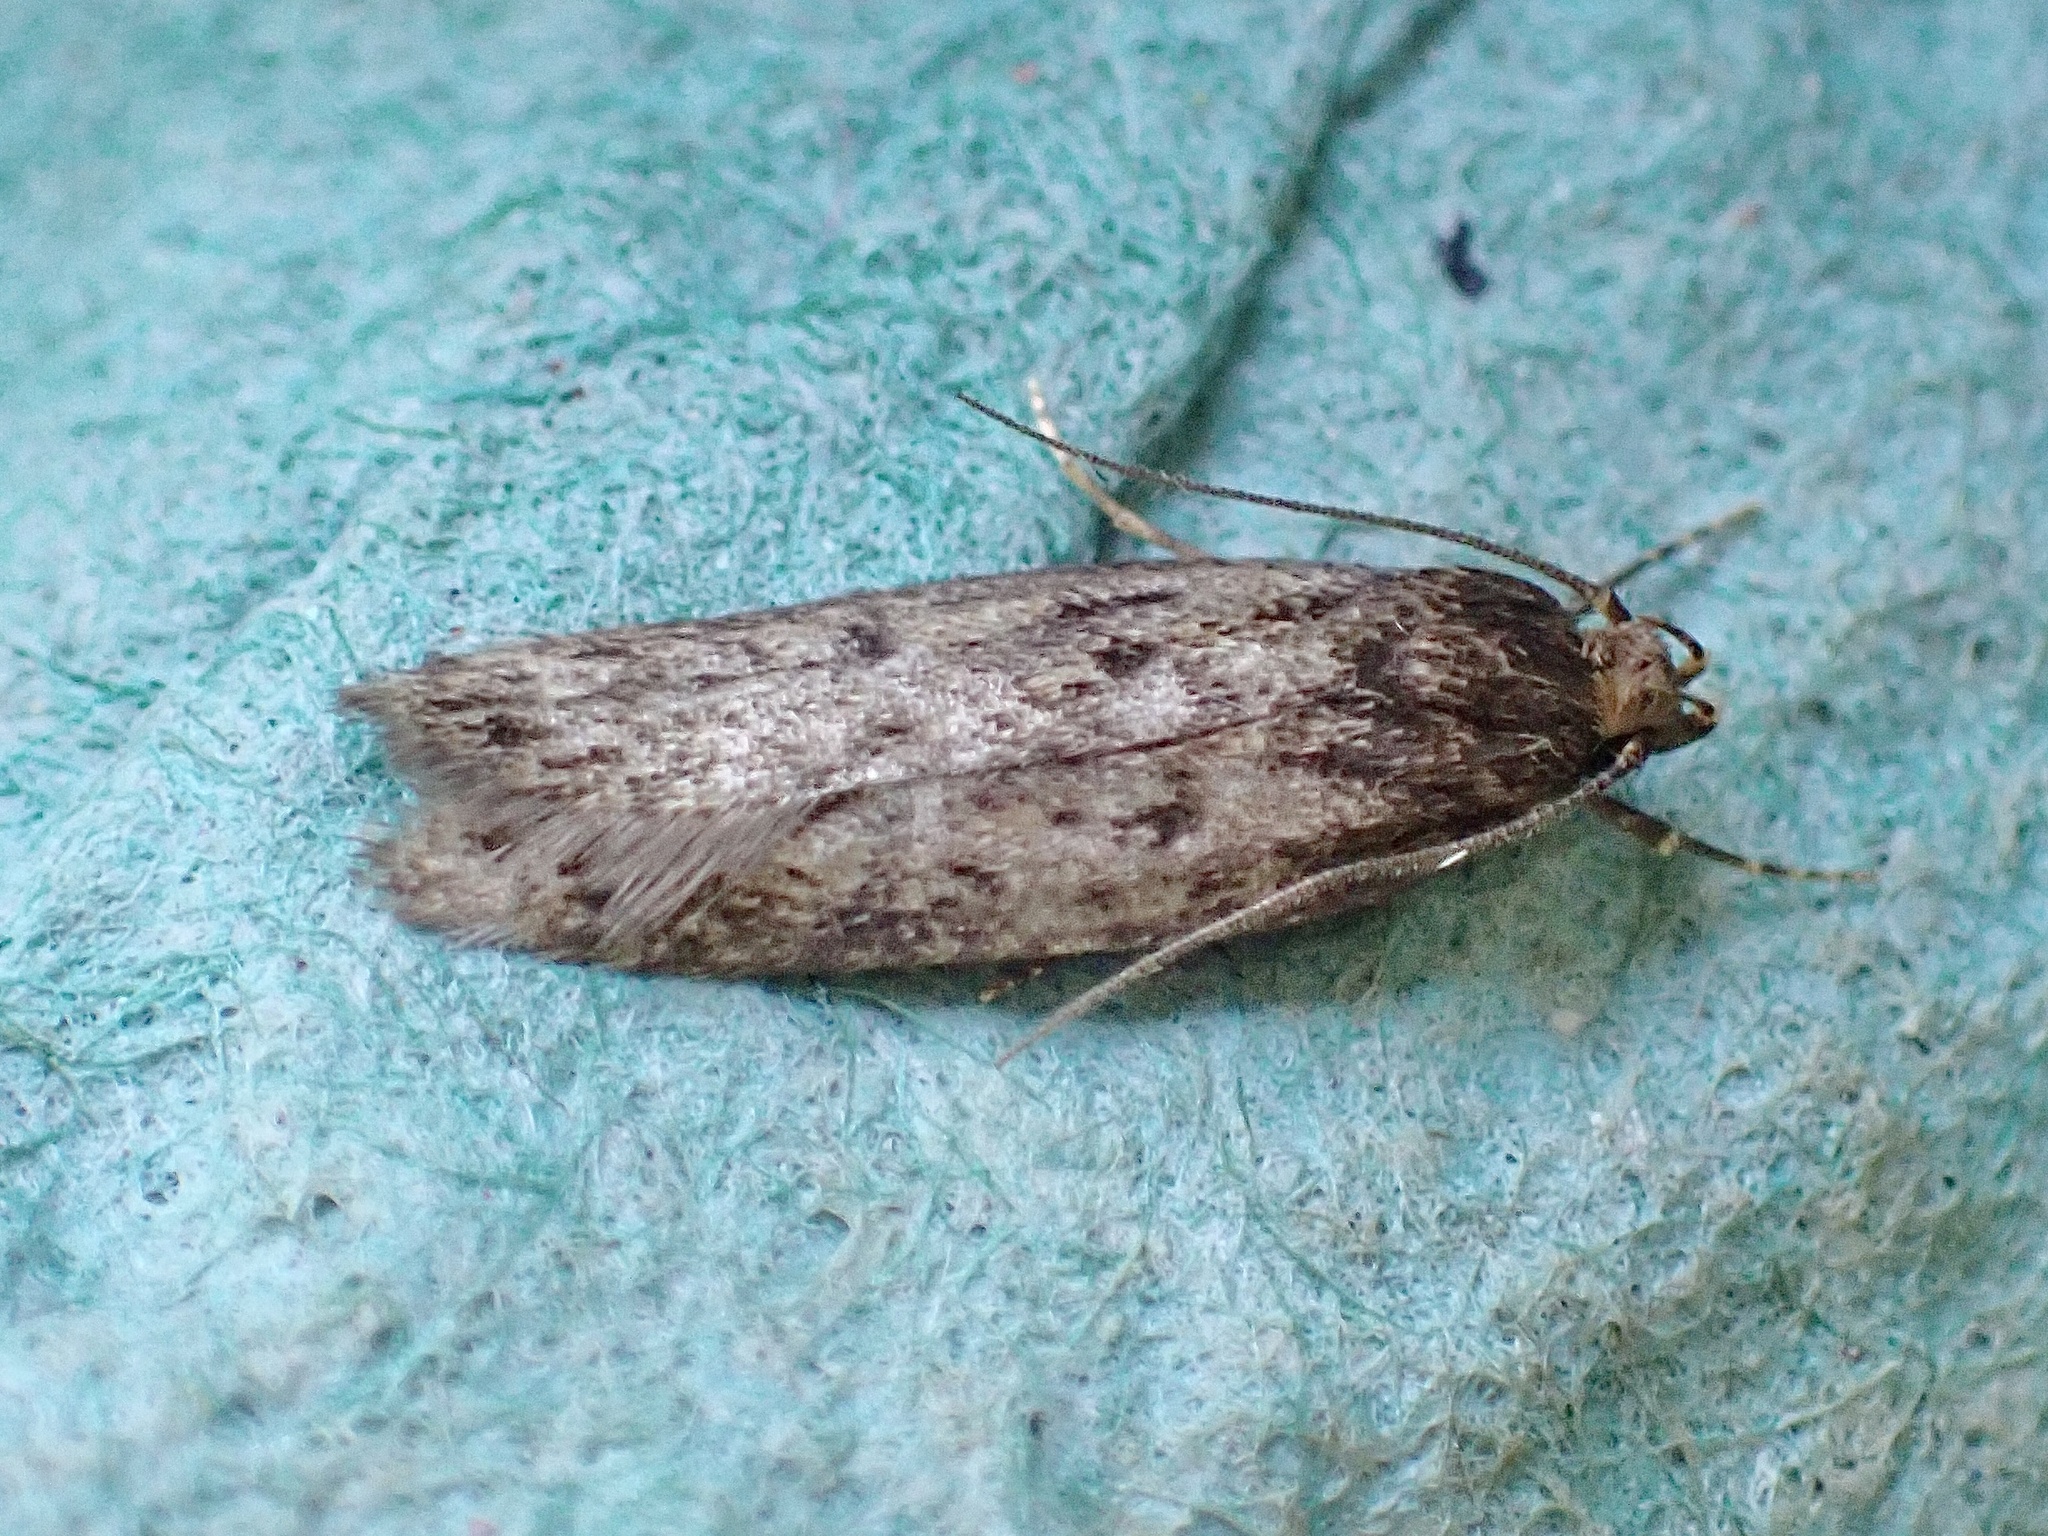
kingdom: Animalia
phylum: Arthropoda
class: Insecta
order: Lepidoptera
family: Oecophoridae
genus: Hofmannophila
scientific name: Hofmannophila pseudospretella
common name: Brown house moth
